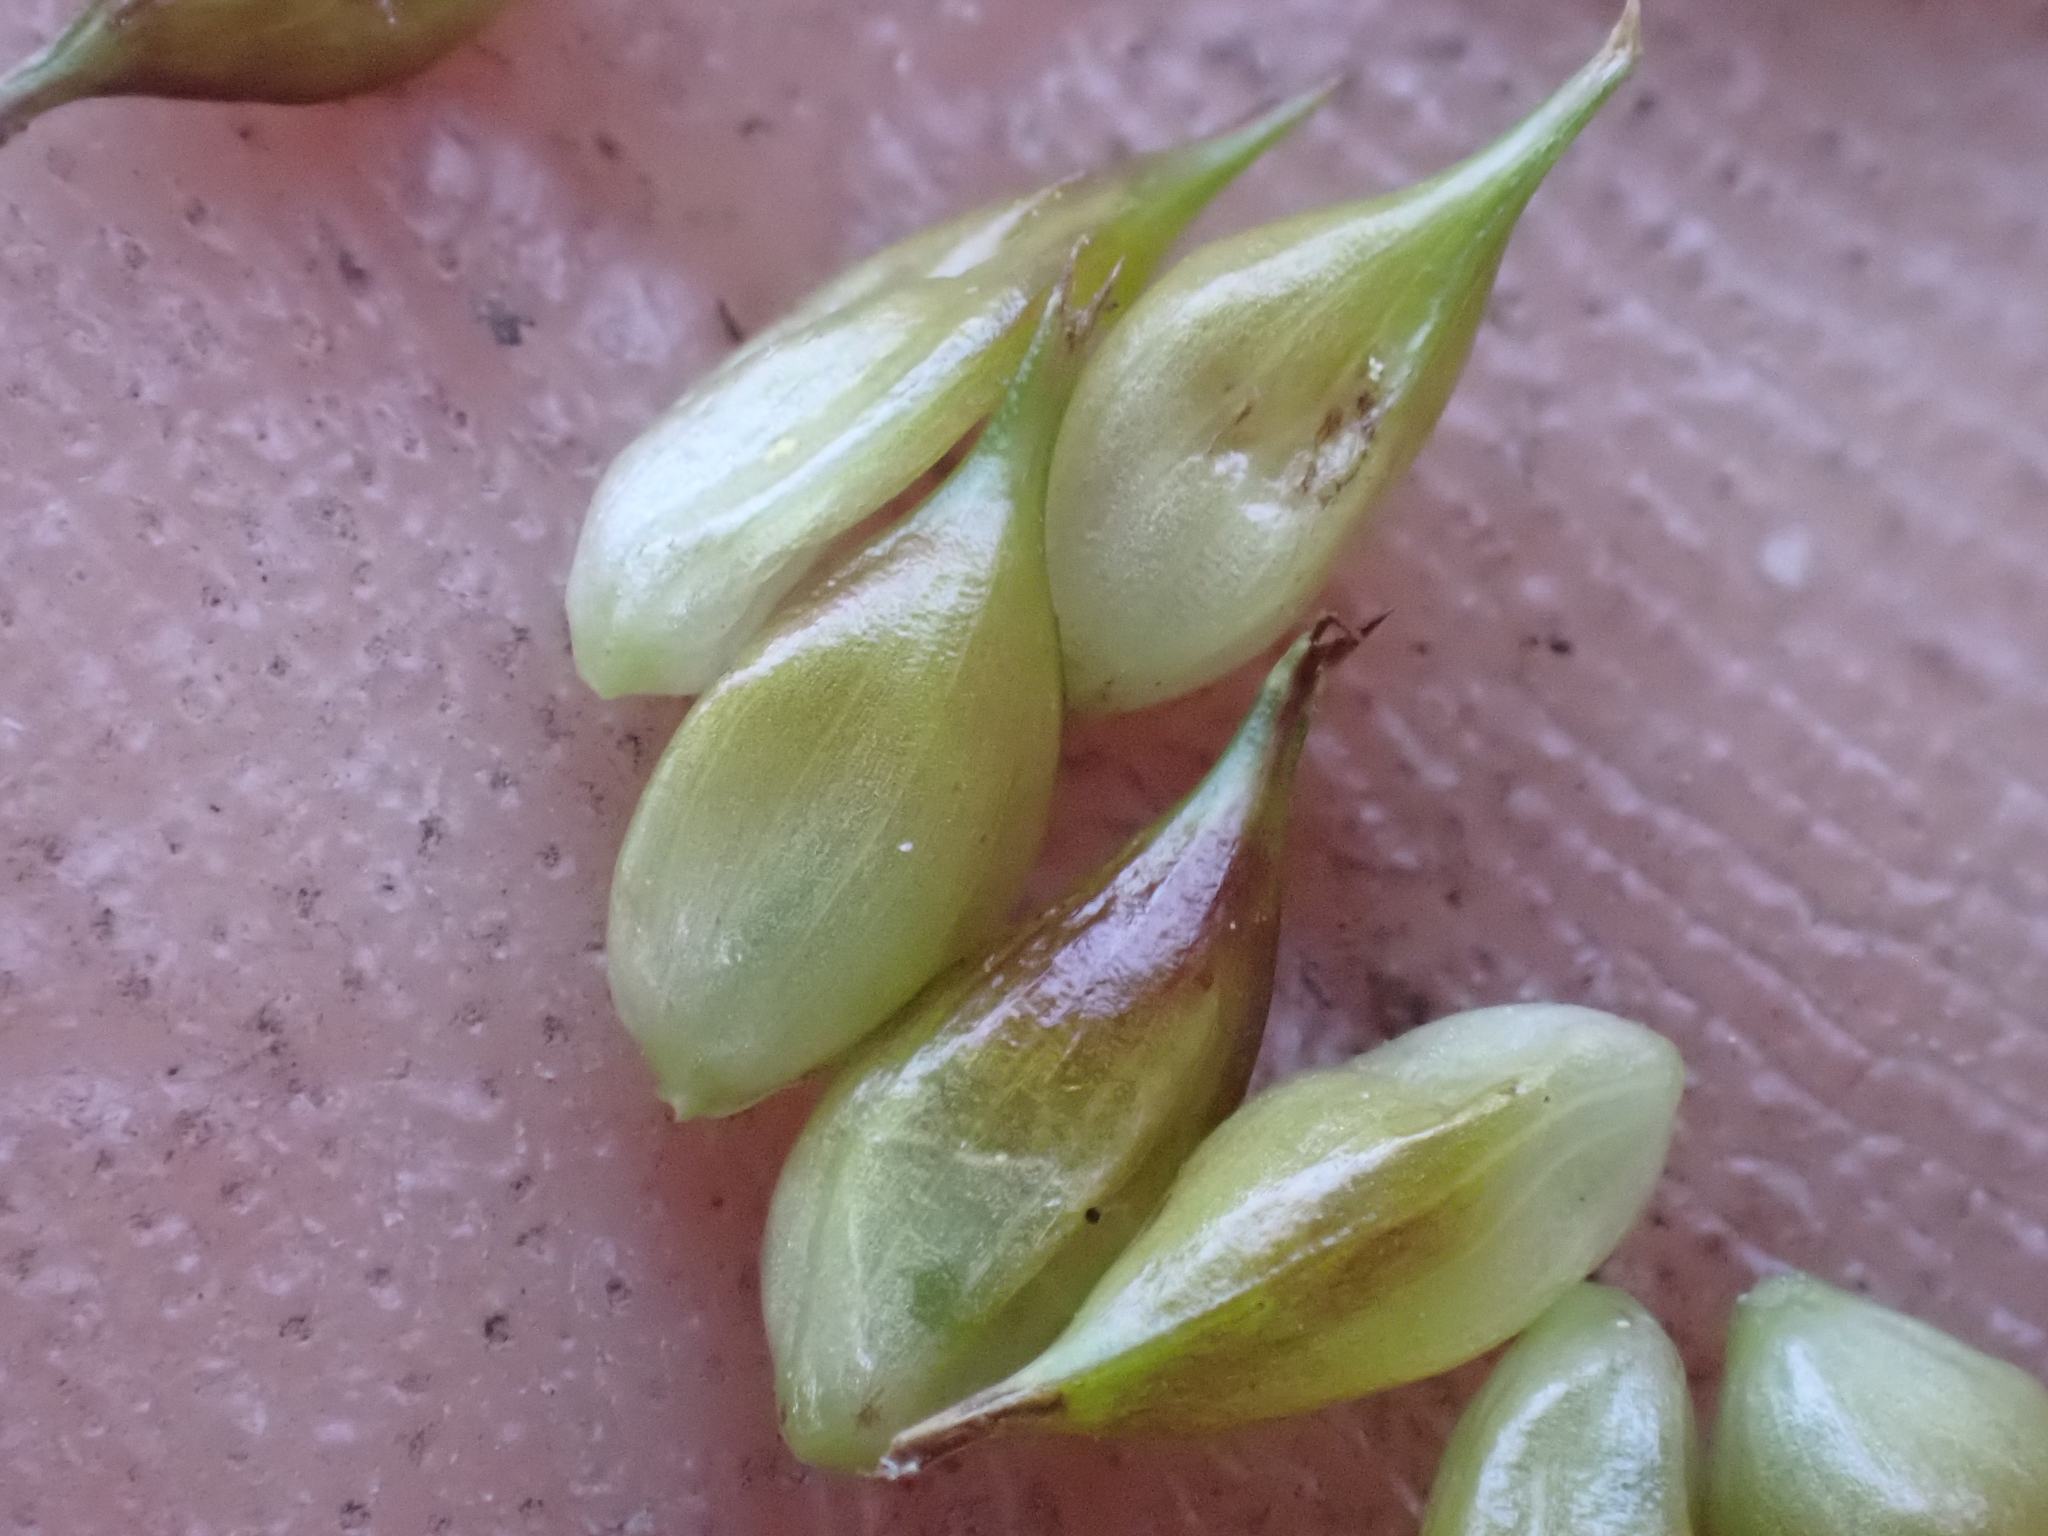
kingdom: Plantae
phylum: Tracheophyta
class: Liliopsida
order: Poales
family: Cyperaceae
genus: Carex
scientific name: Carex utriculata
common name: Beaked sedge
